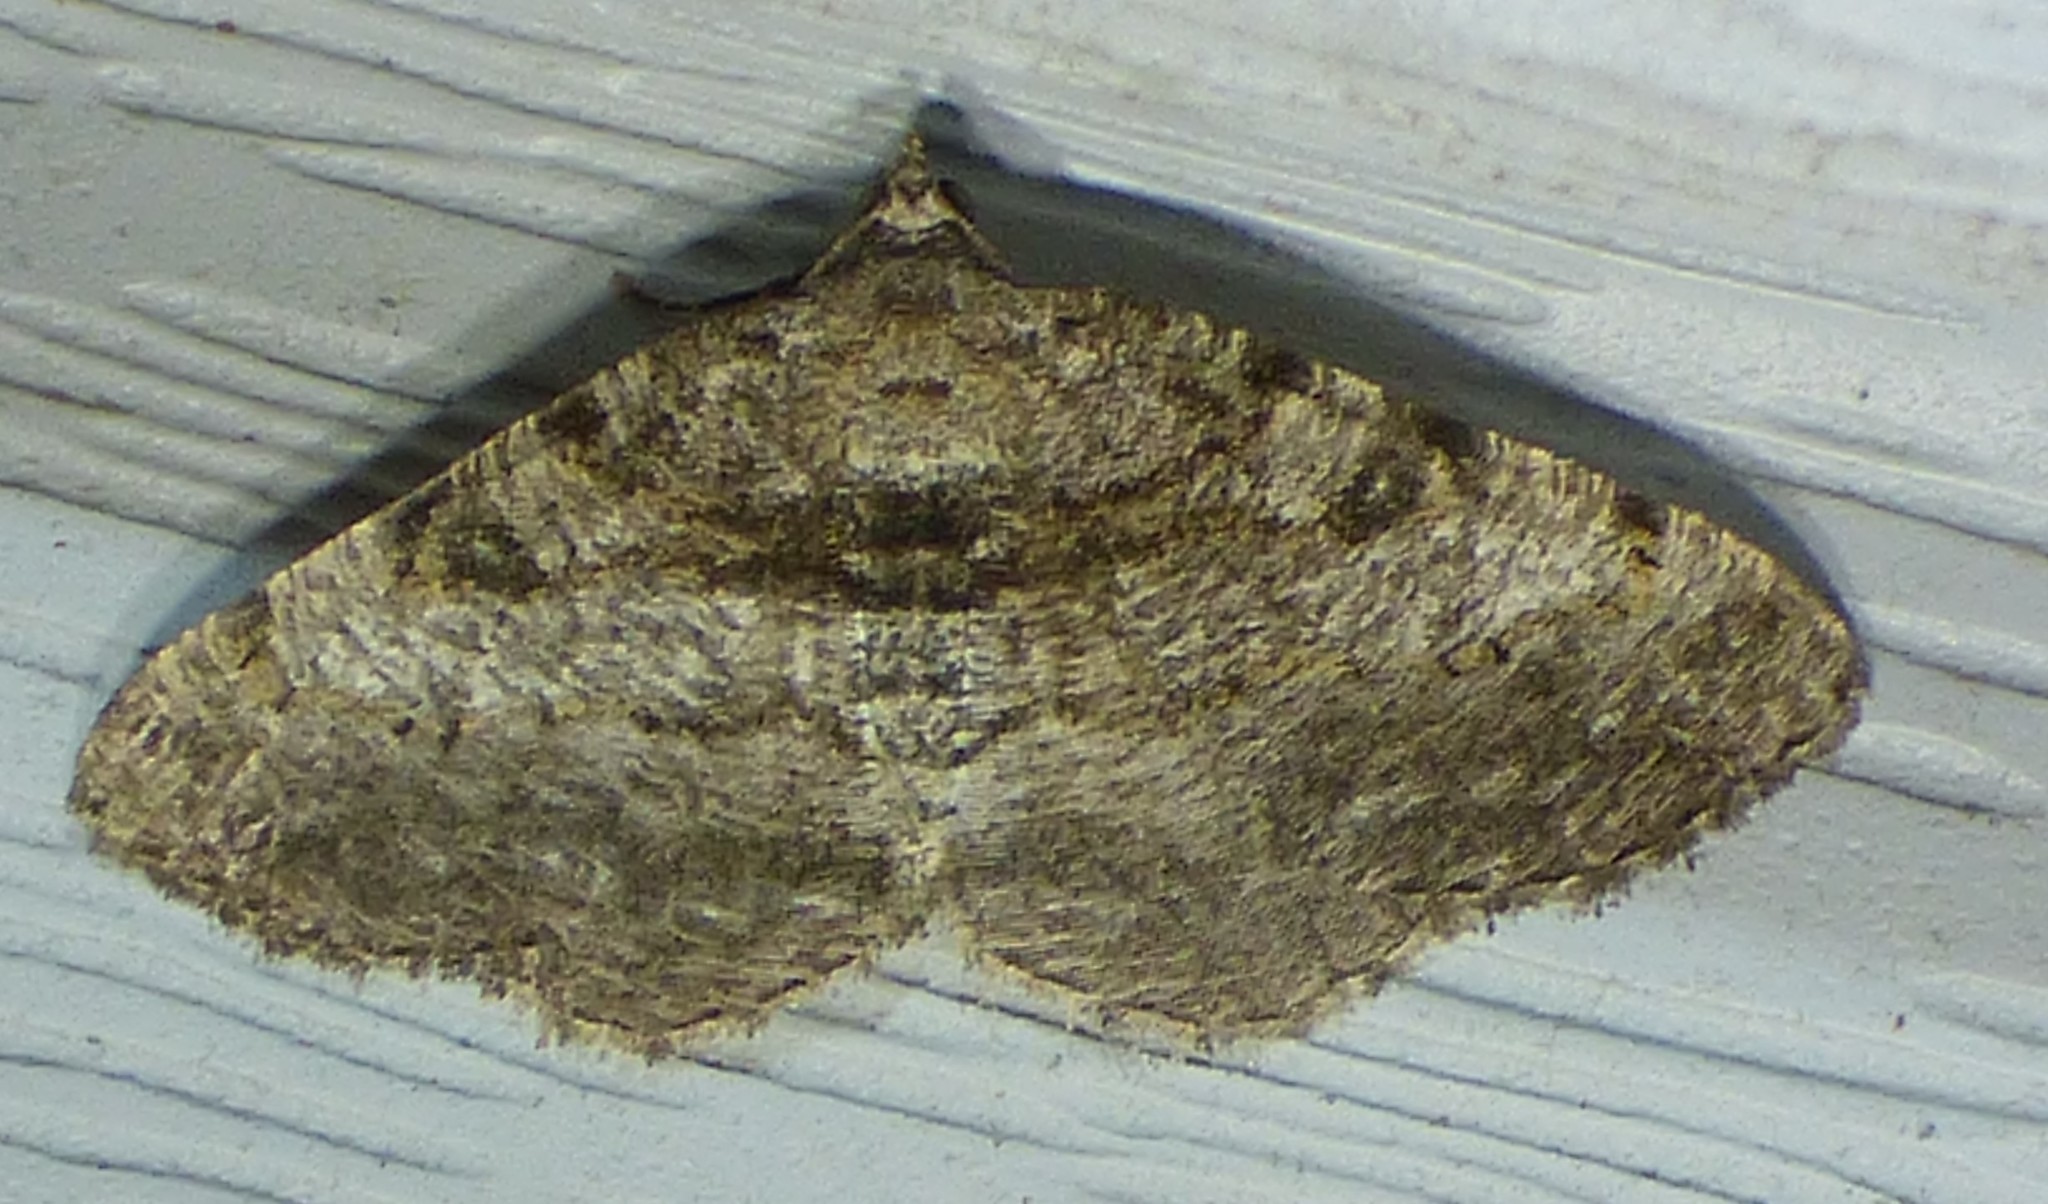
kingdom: Animalia
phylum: Arthropoda
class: Insecta
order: Lepidoptera
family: Geometridae
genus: Digrammia
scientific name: Digrammia gnophosaria
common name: Hollow-spotted angle
